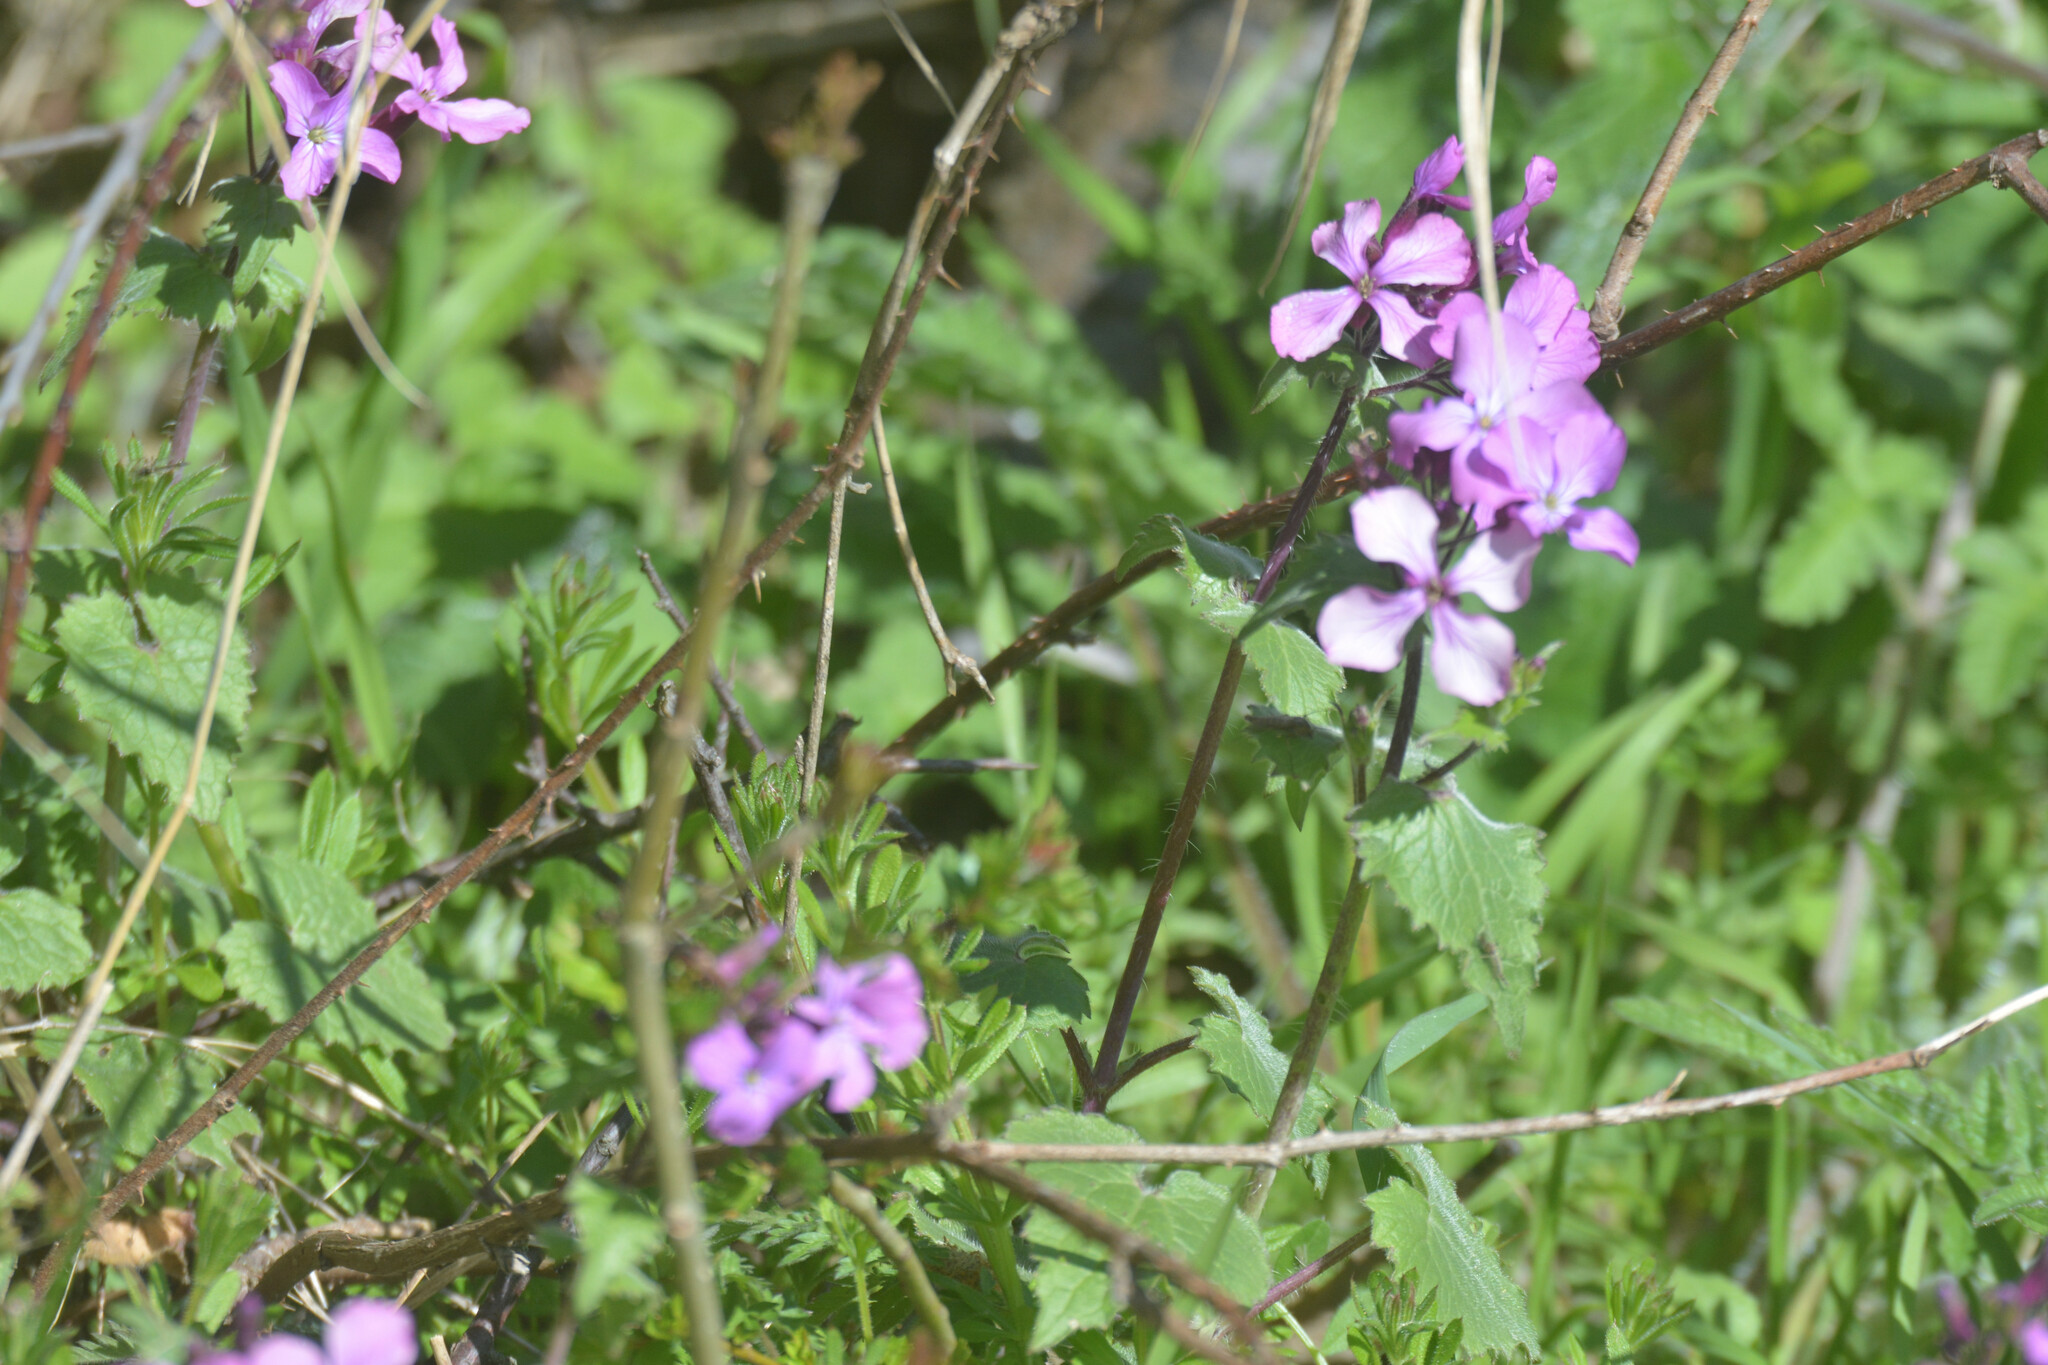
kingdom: Plantae
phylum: Tracheophyta
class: Magnoliopsida
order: Brassicales
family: Brassicaceae
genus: Lunaria
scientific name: Lunaria annua
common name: Honesty
